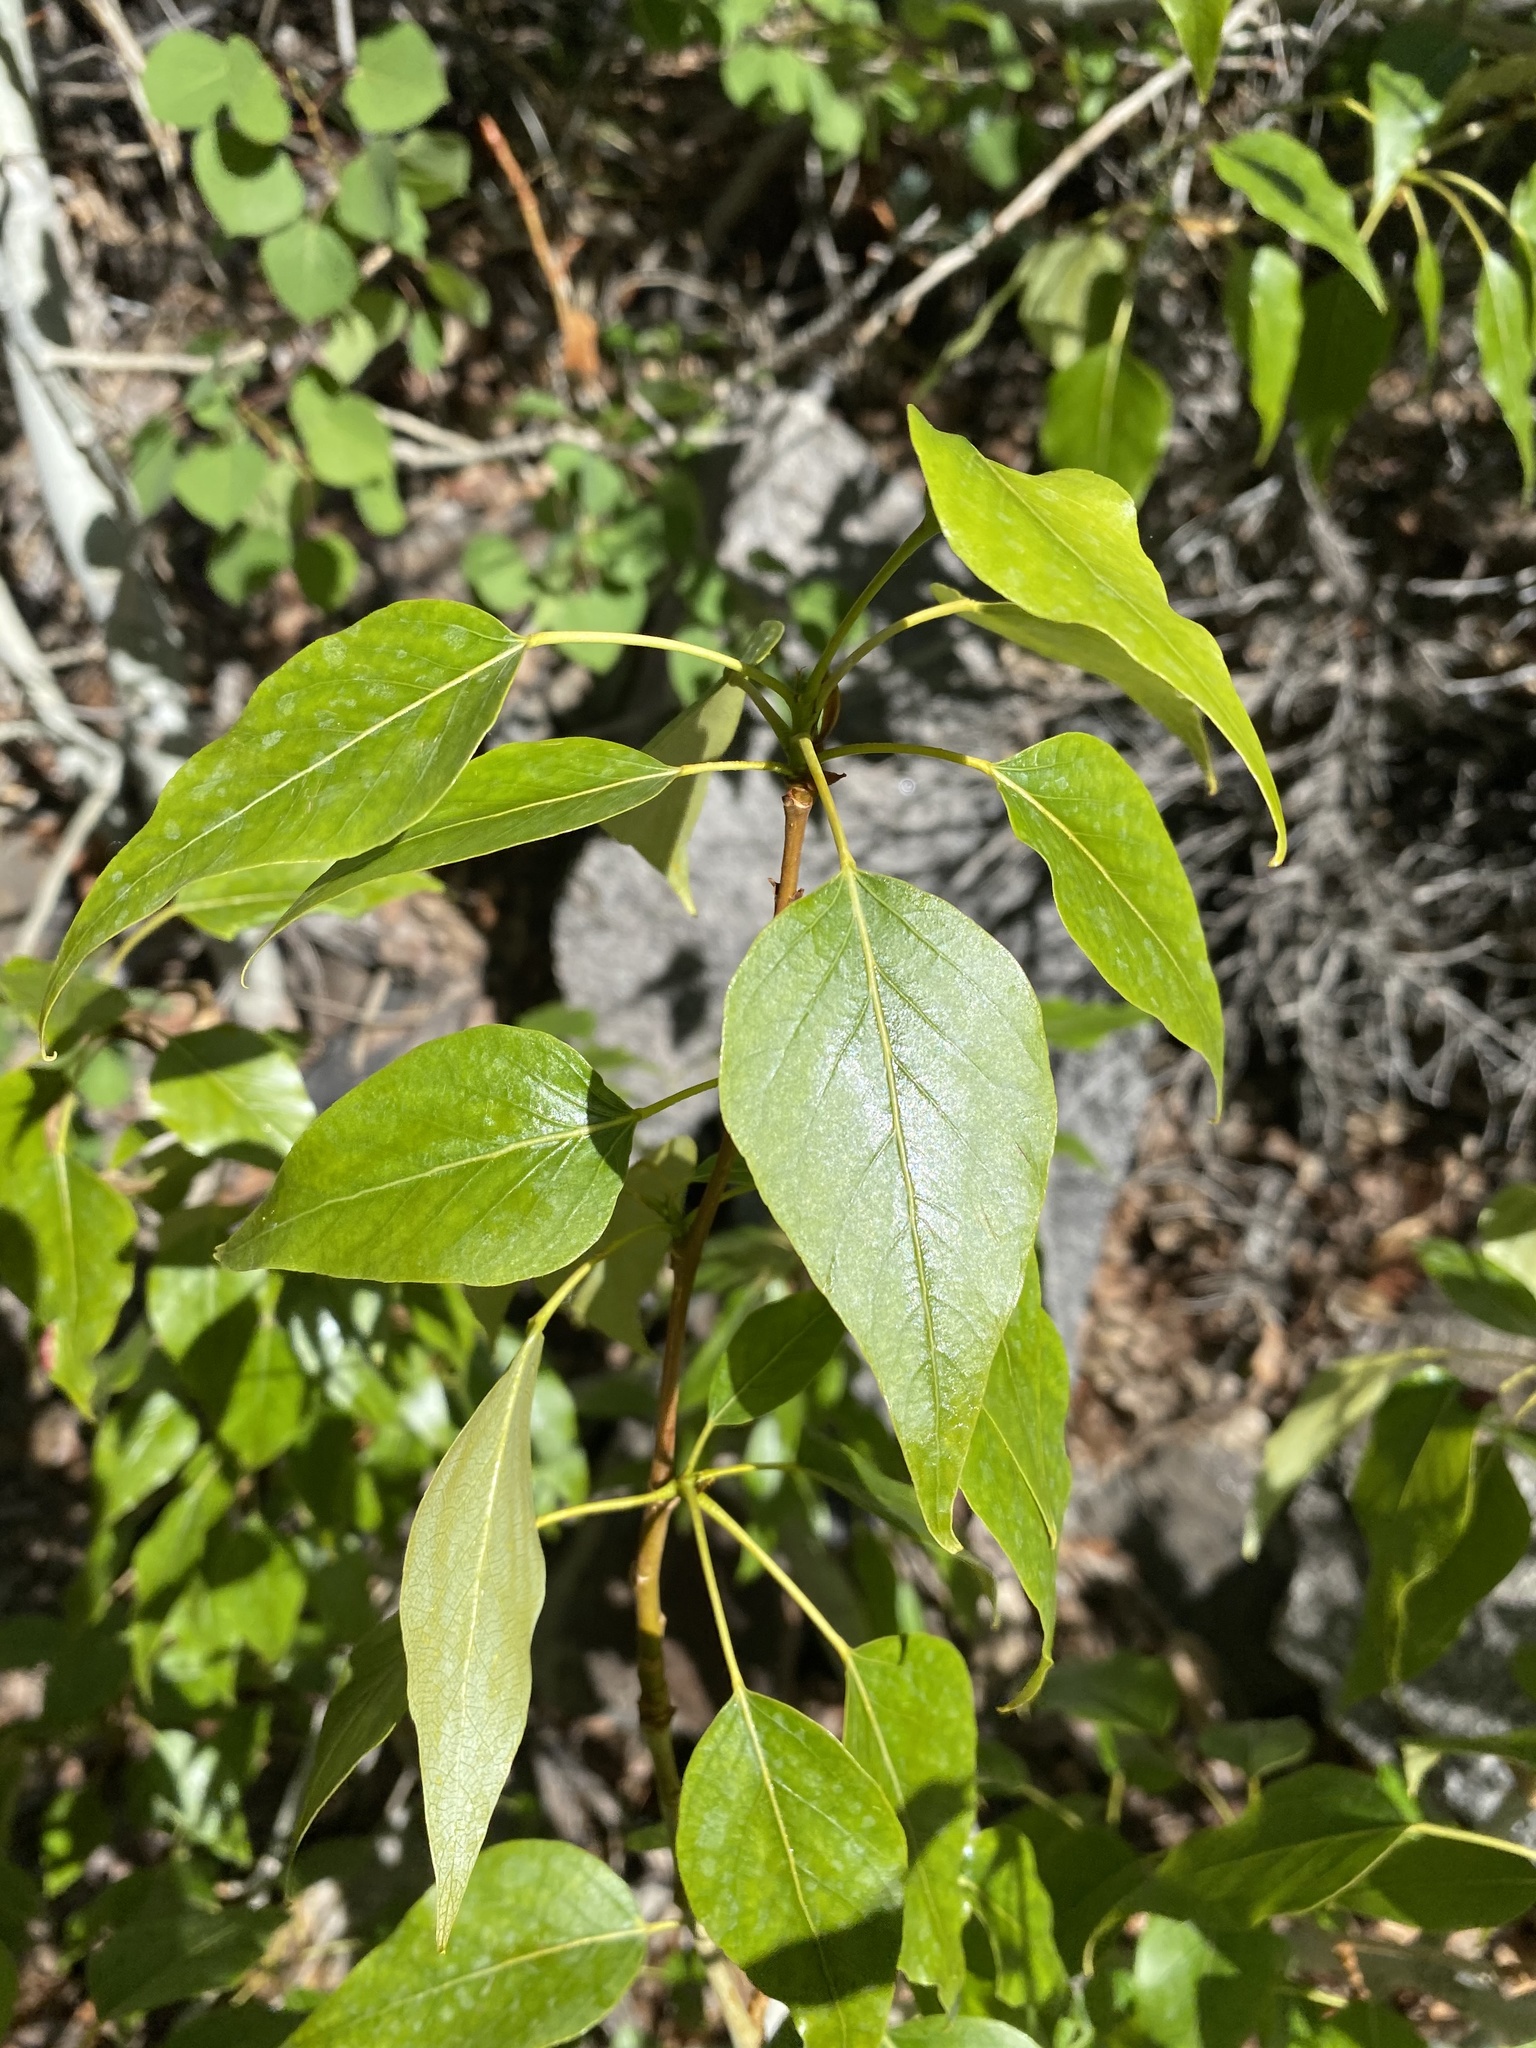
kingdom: Plantae
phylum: Tracheophyta
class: Magnoliopsida
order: Malpighiales
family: Salicaceae
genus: Populus
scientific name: Populus trichocarpa
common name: Black cottonwood
